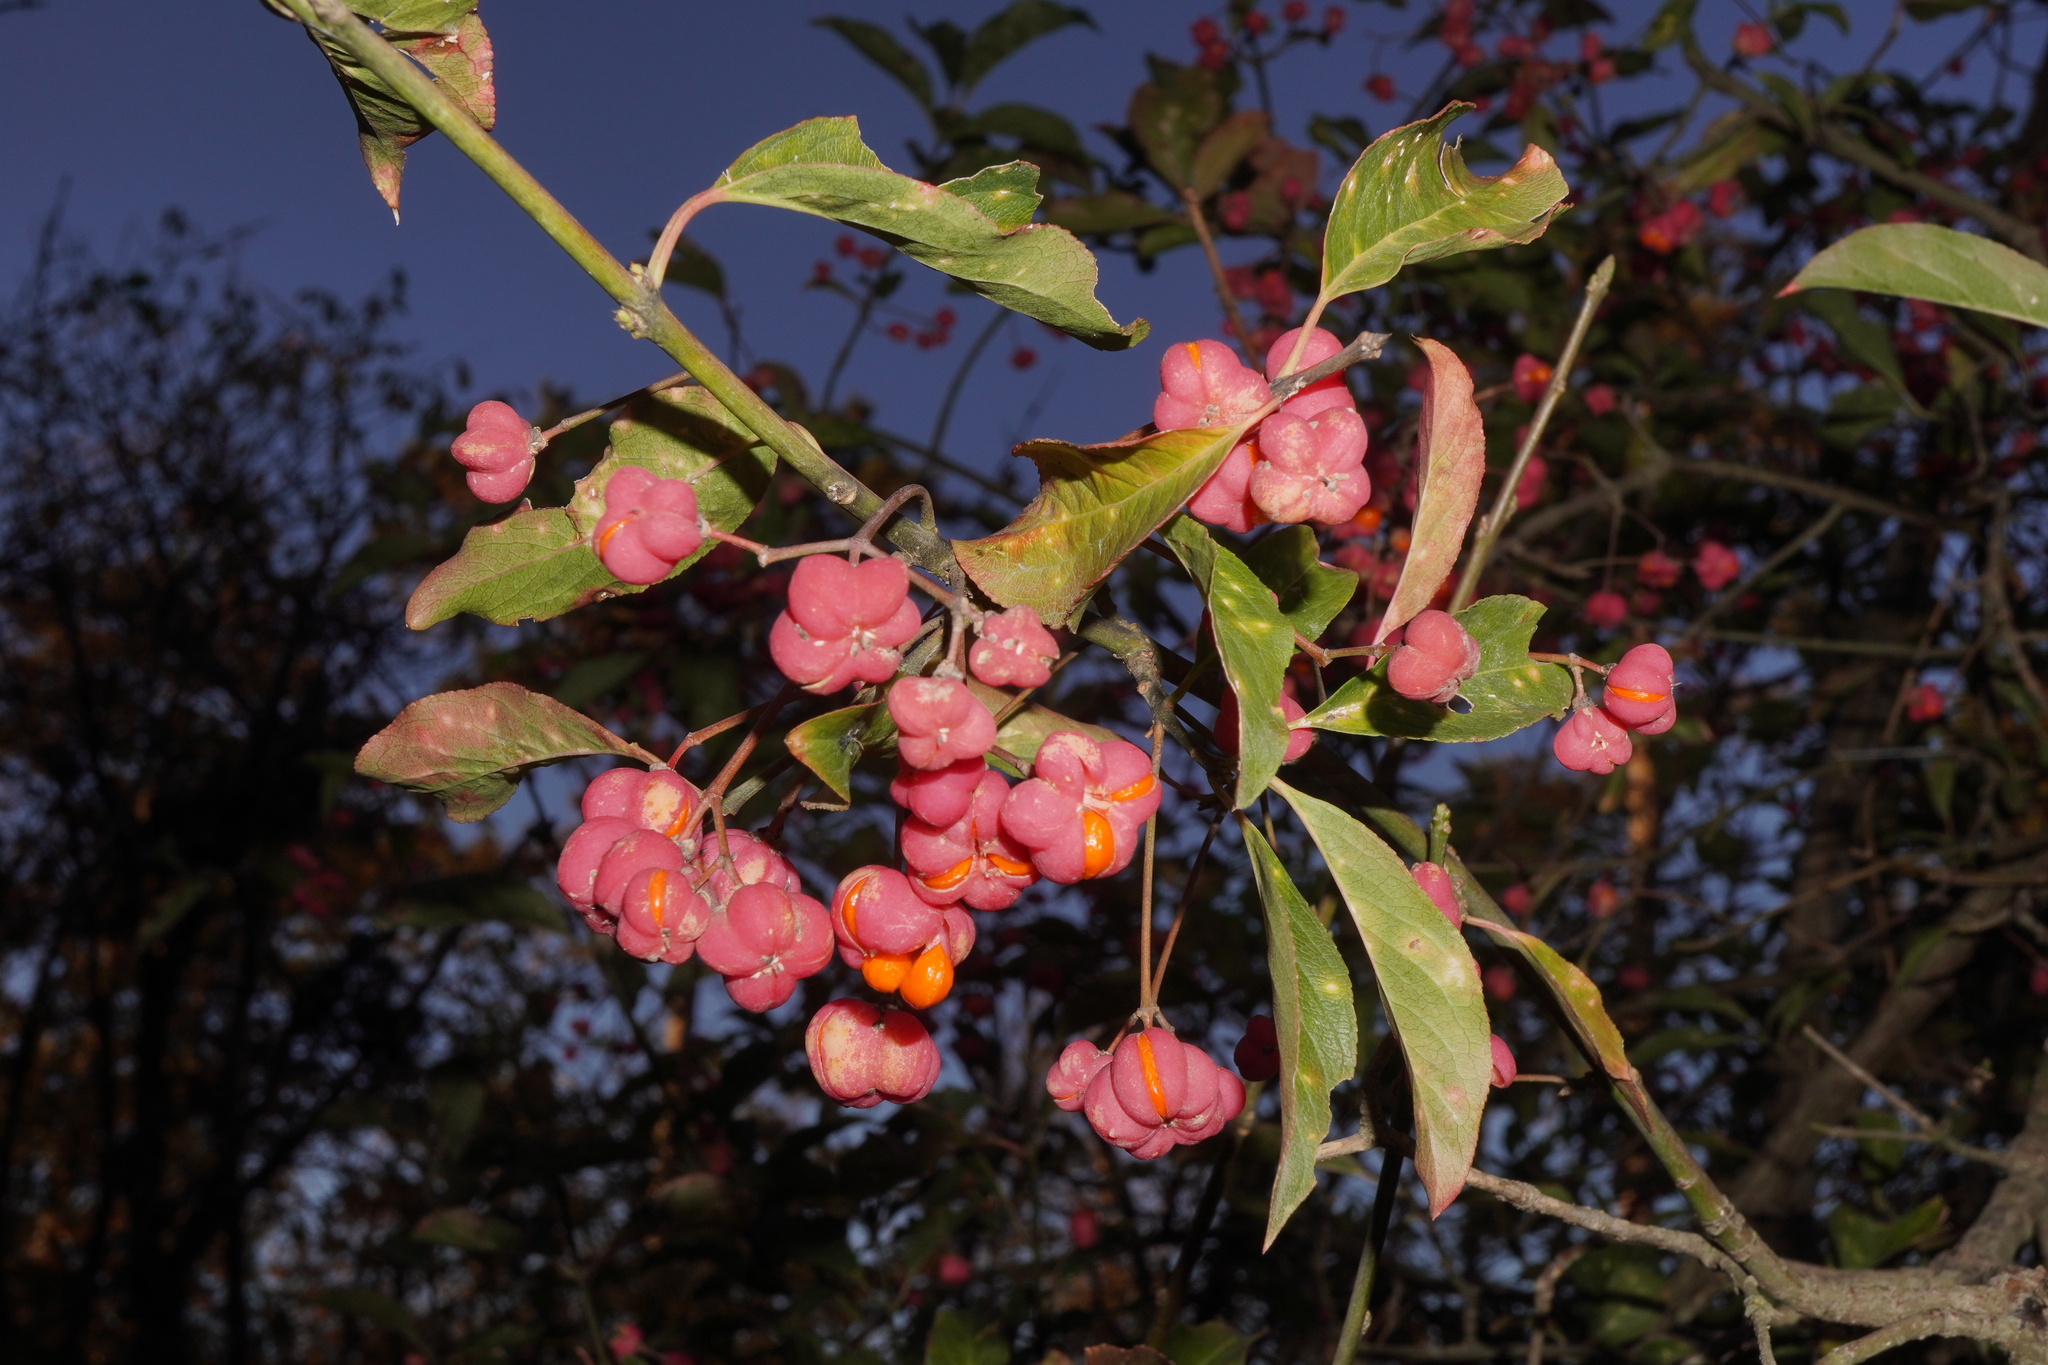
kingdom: Plantae
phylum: Tracheophyta
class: Magnoliopsida
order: Celastrales
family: Celastraceae
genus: Euonymus
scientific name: Euonymus europaeus
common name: Spindle
